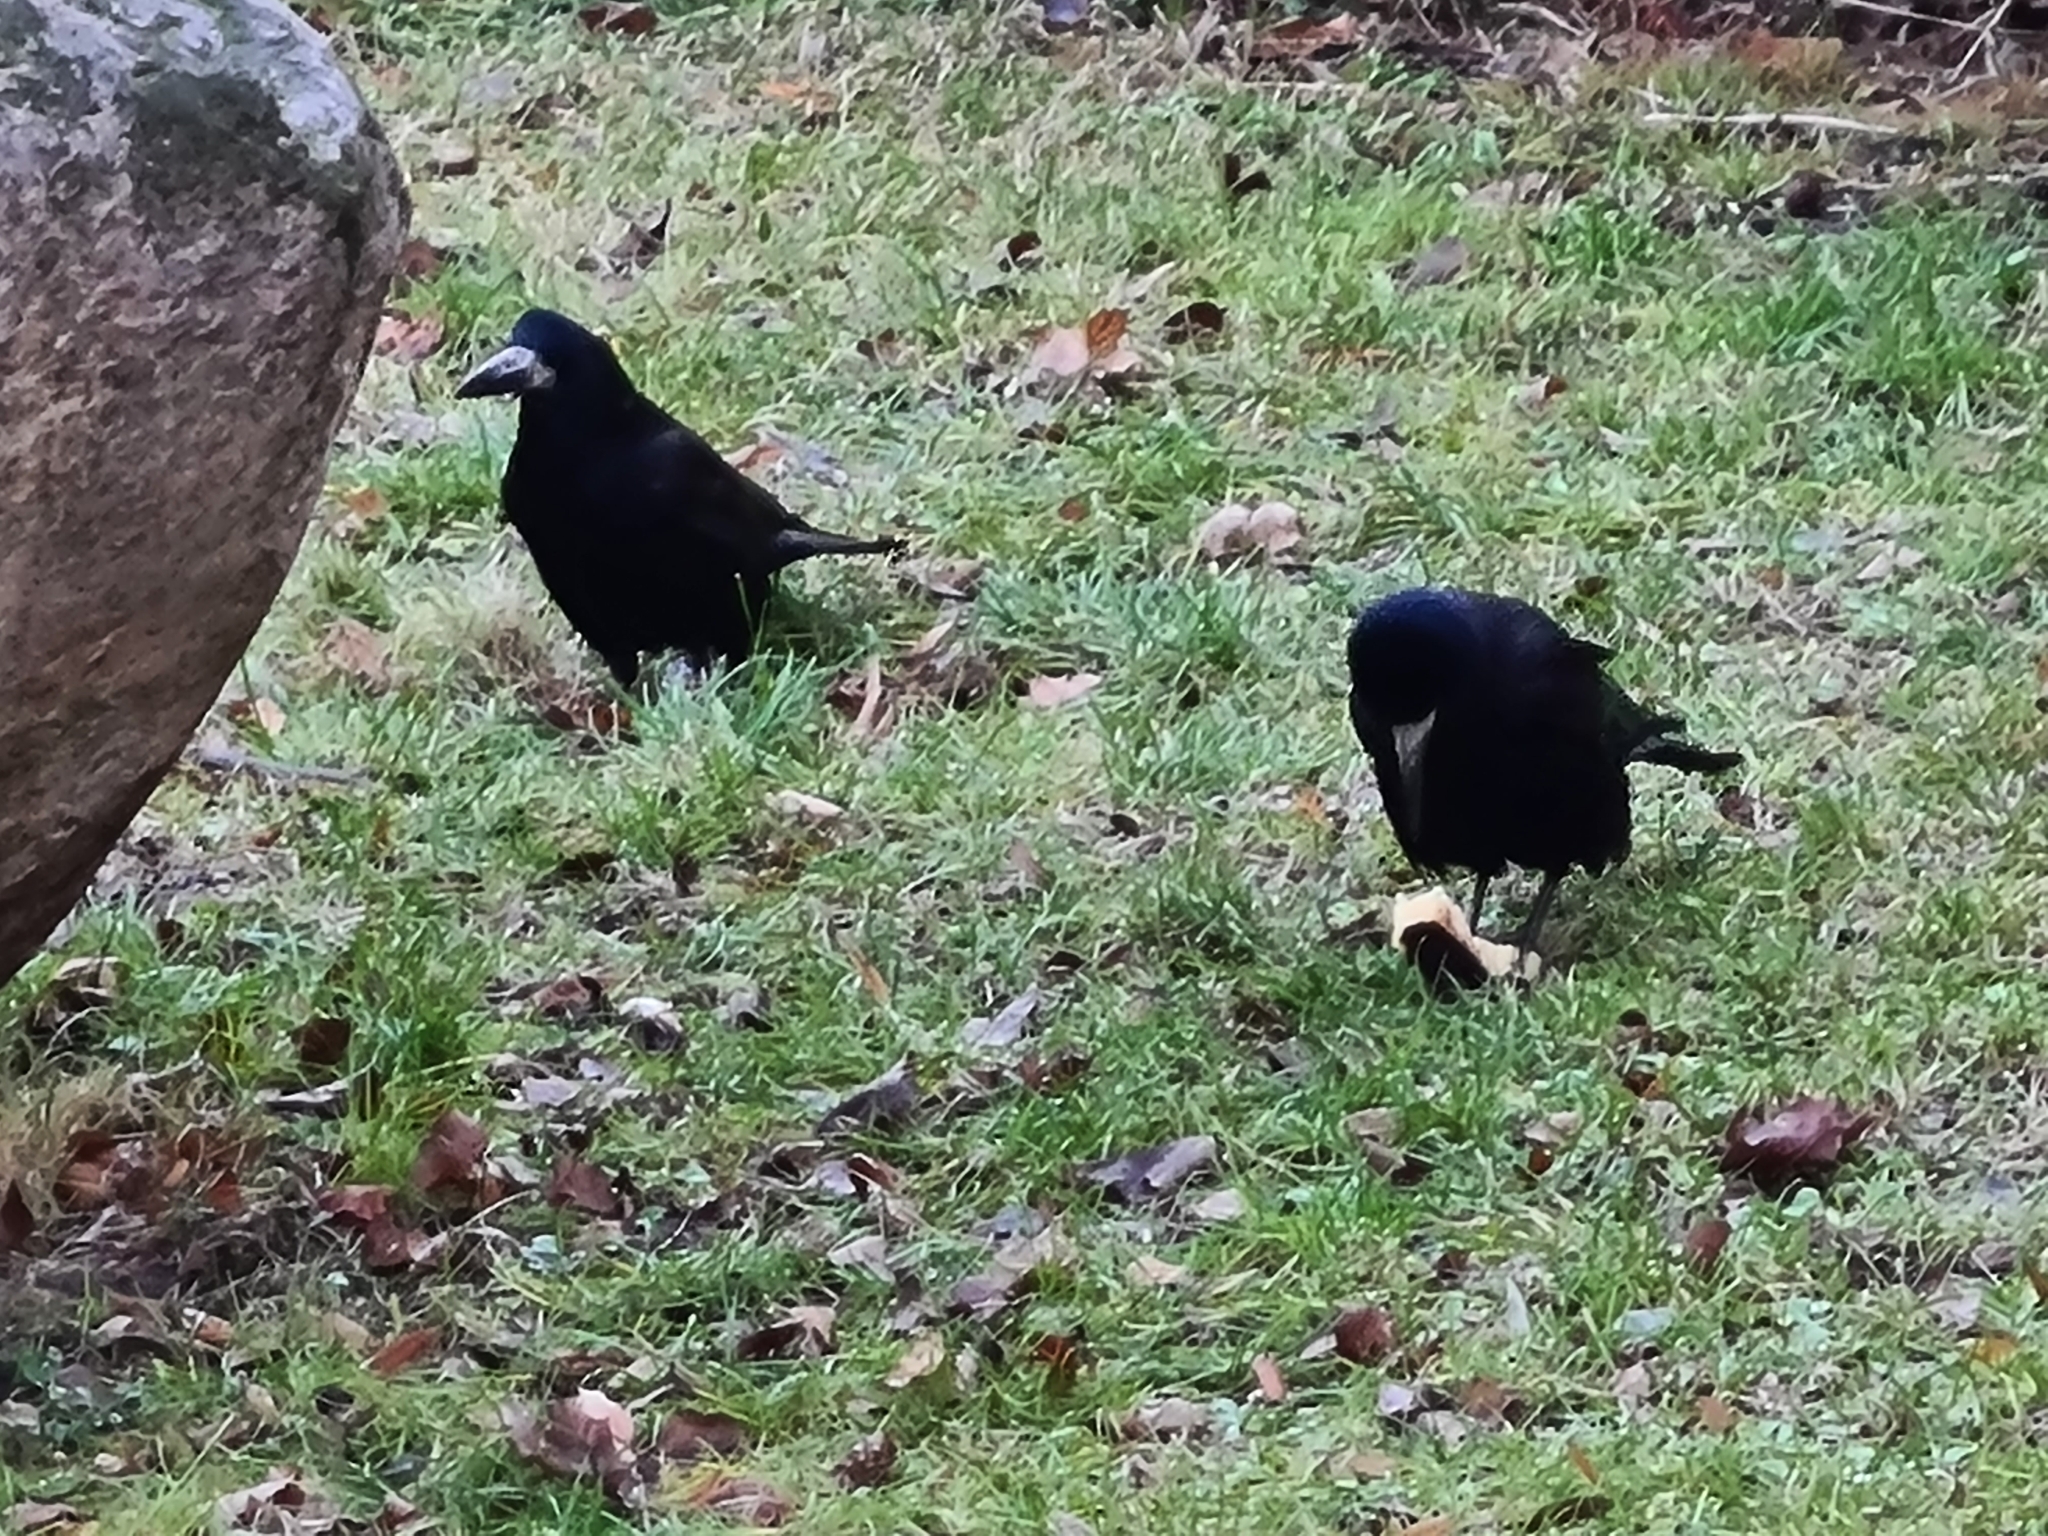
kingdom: Animalia
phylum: Chordata
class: Aves
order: Passeriformes
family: Corvidae
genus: Corvus
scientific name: Corvus frugilegus
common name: Rook
